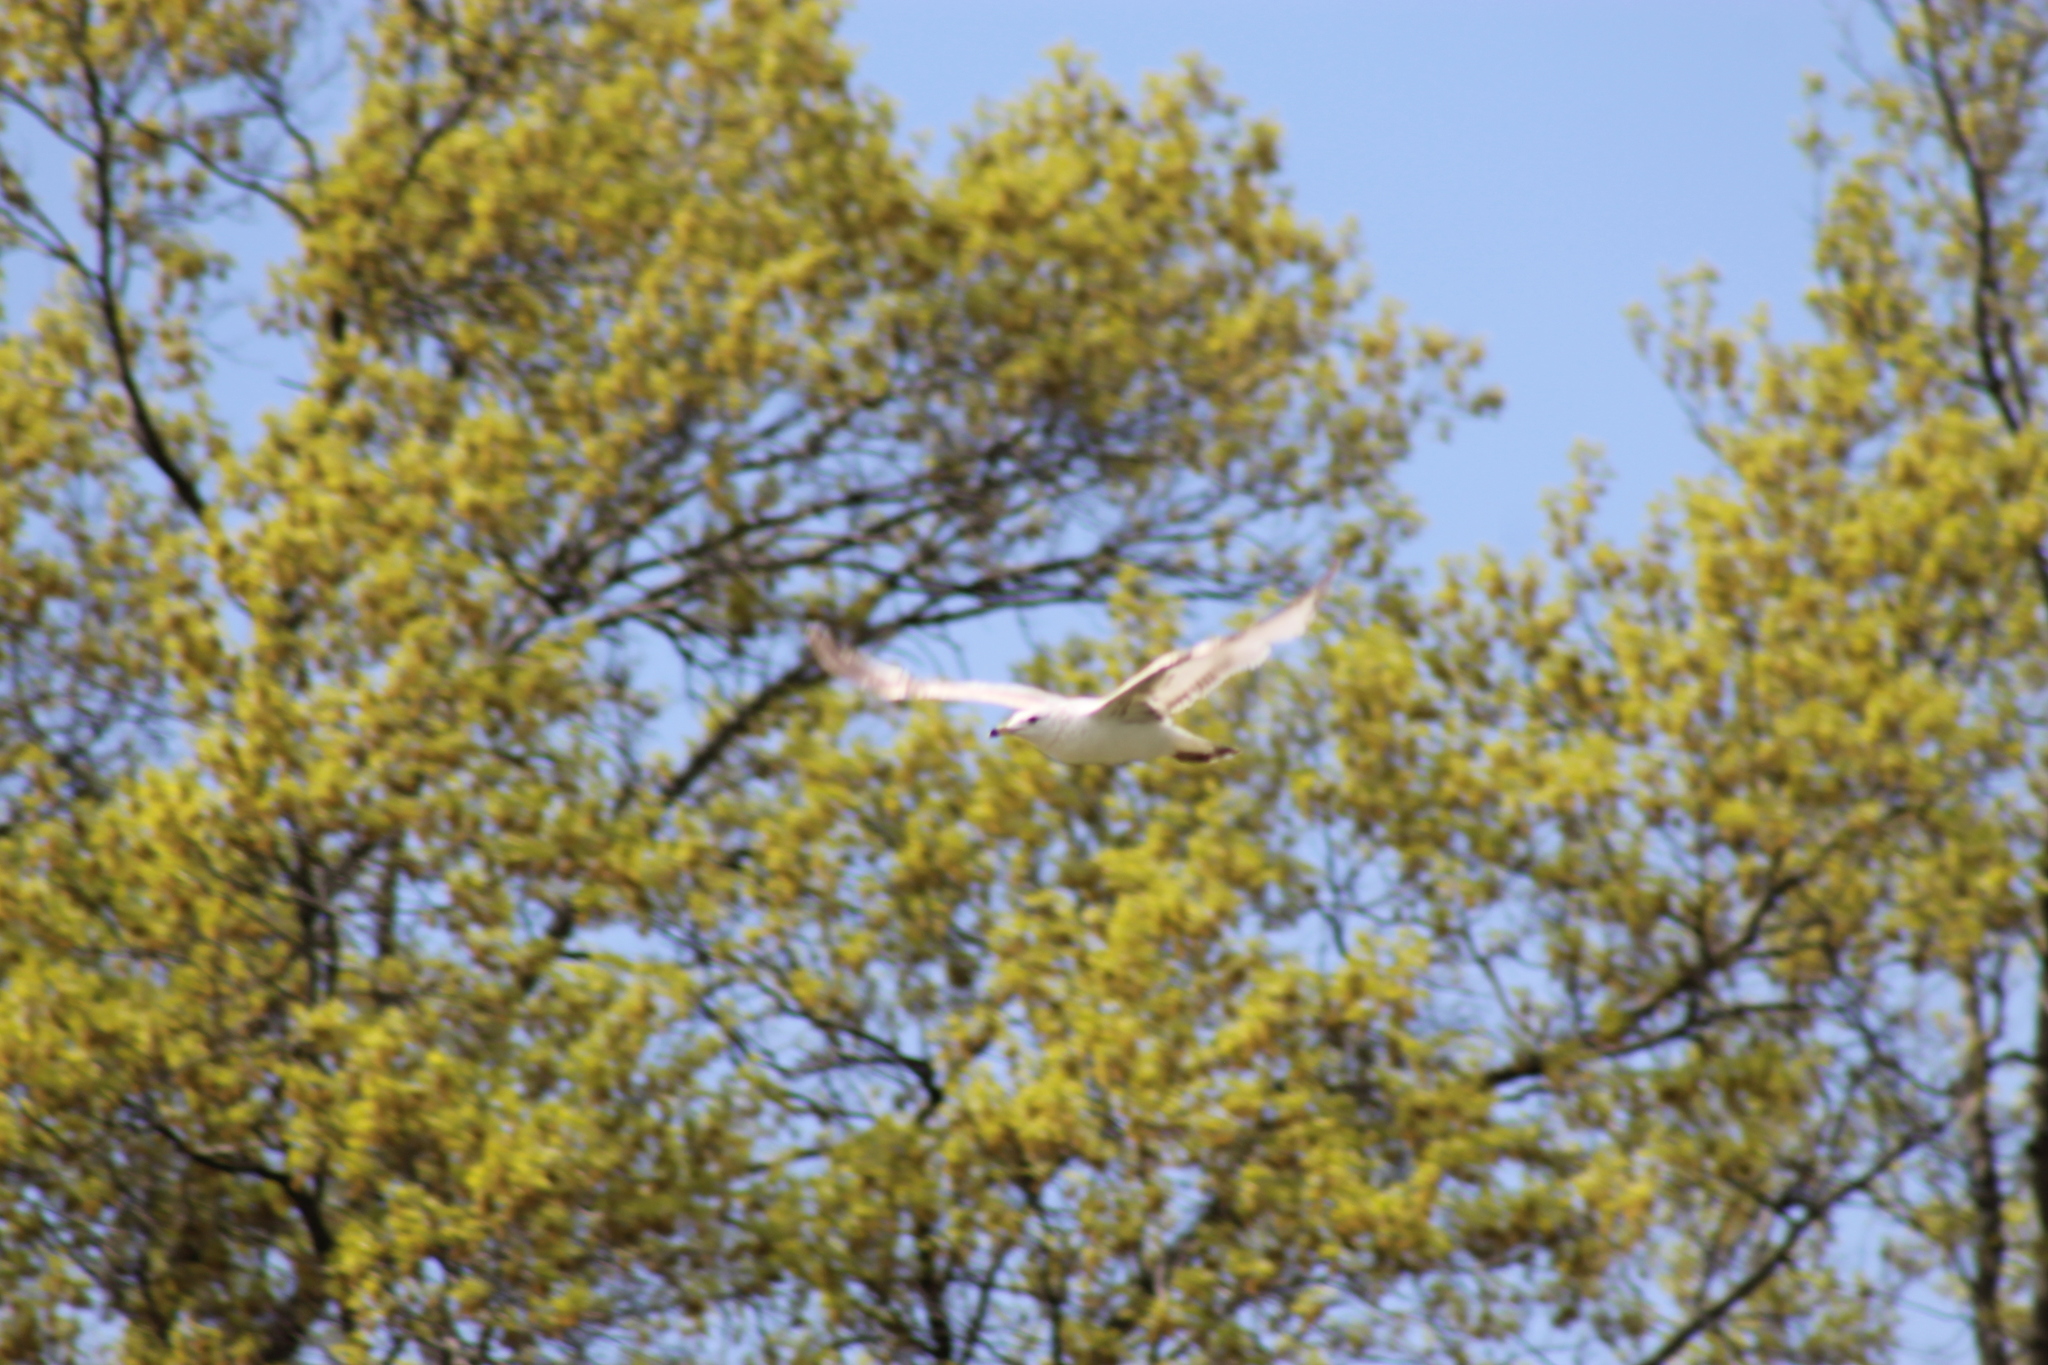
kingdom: Animalia
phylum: Chordata
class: Aves
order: Charadriiformes
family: Laridae
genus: Larus
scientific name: Larus delawarensis
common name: Ring-billed gull
